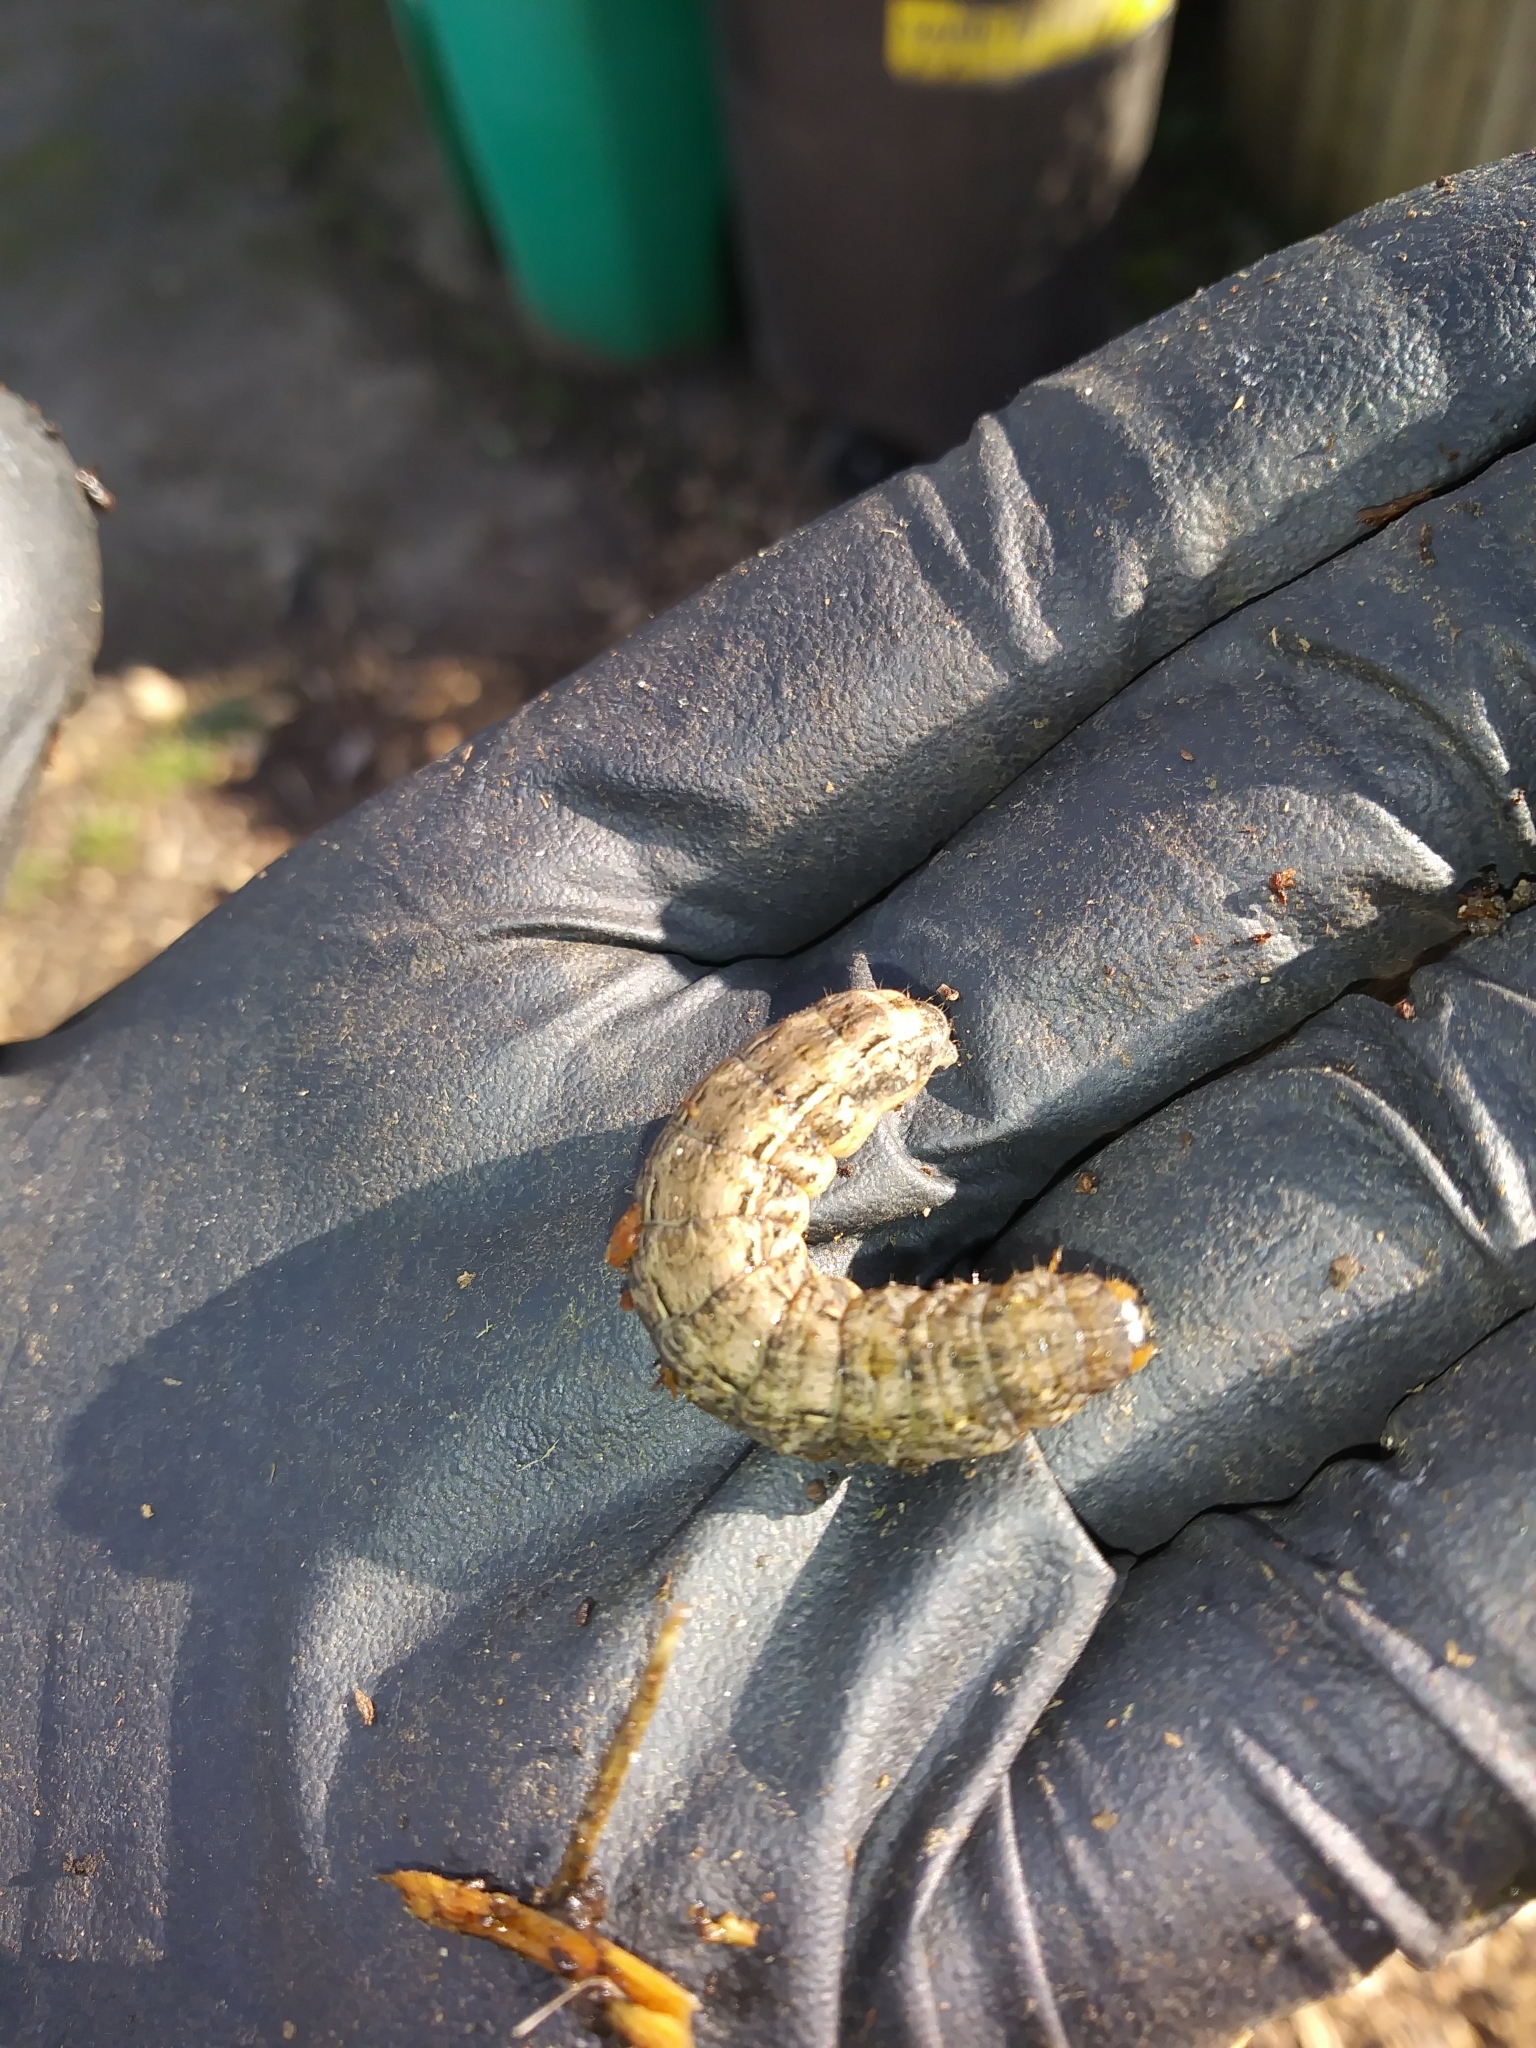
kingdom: Animalia
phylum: Arthropoda
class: Insecta
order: Lepidoptera
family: Noctuidae
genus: Noctua
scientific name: Noctua pronuba
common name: Large yellow underwing
